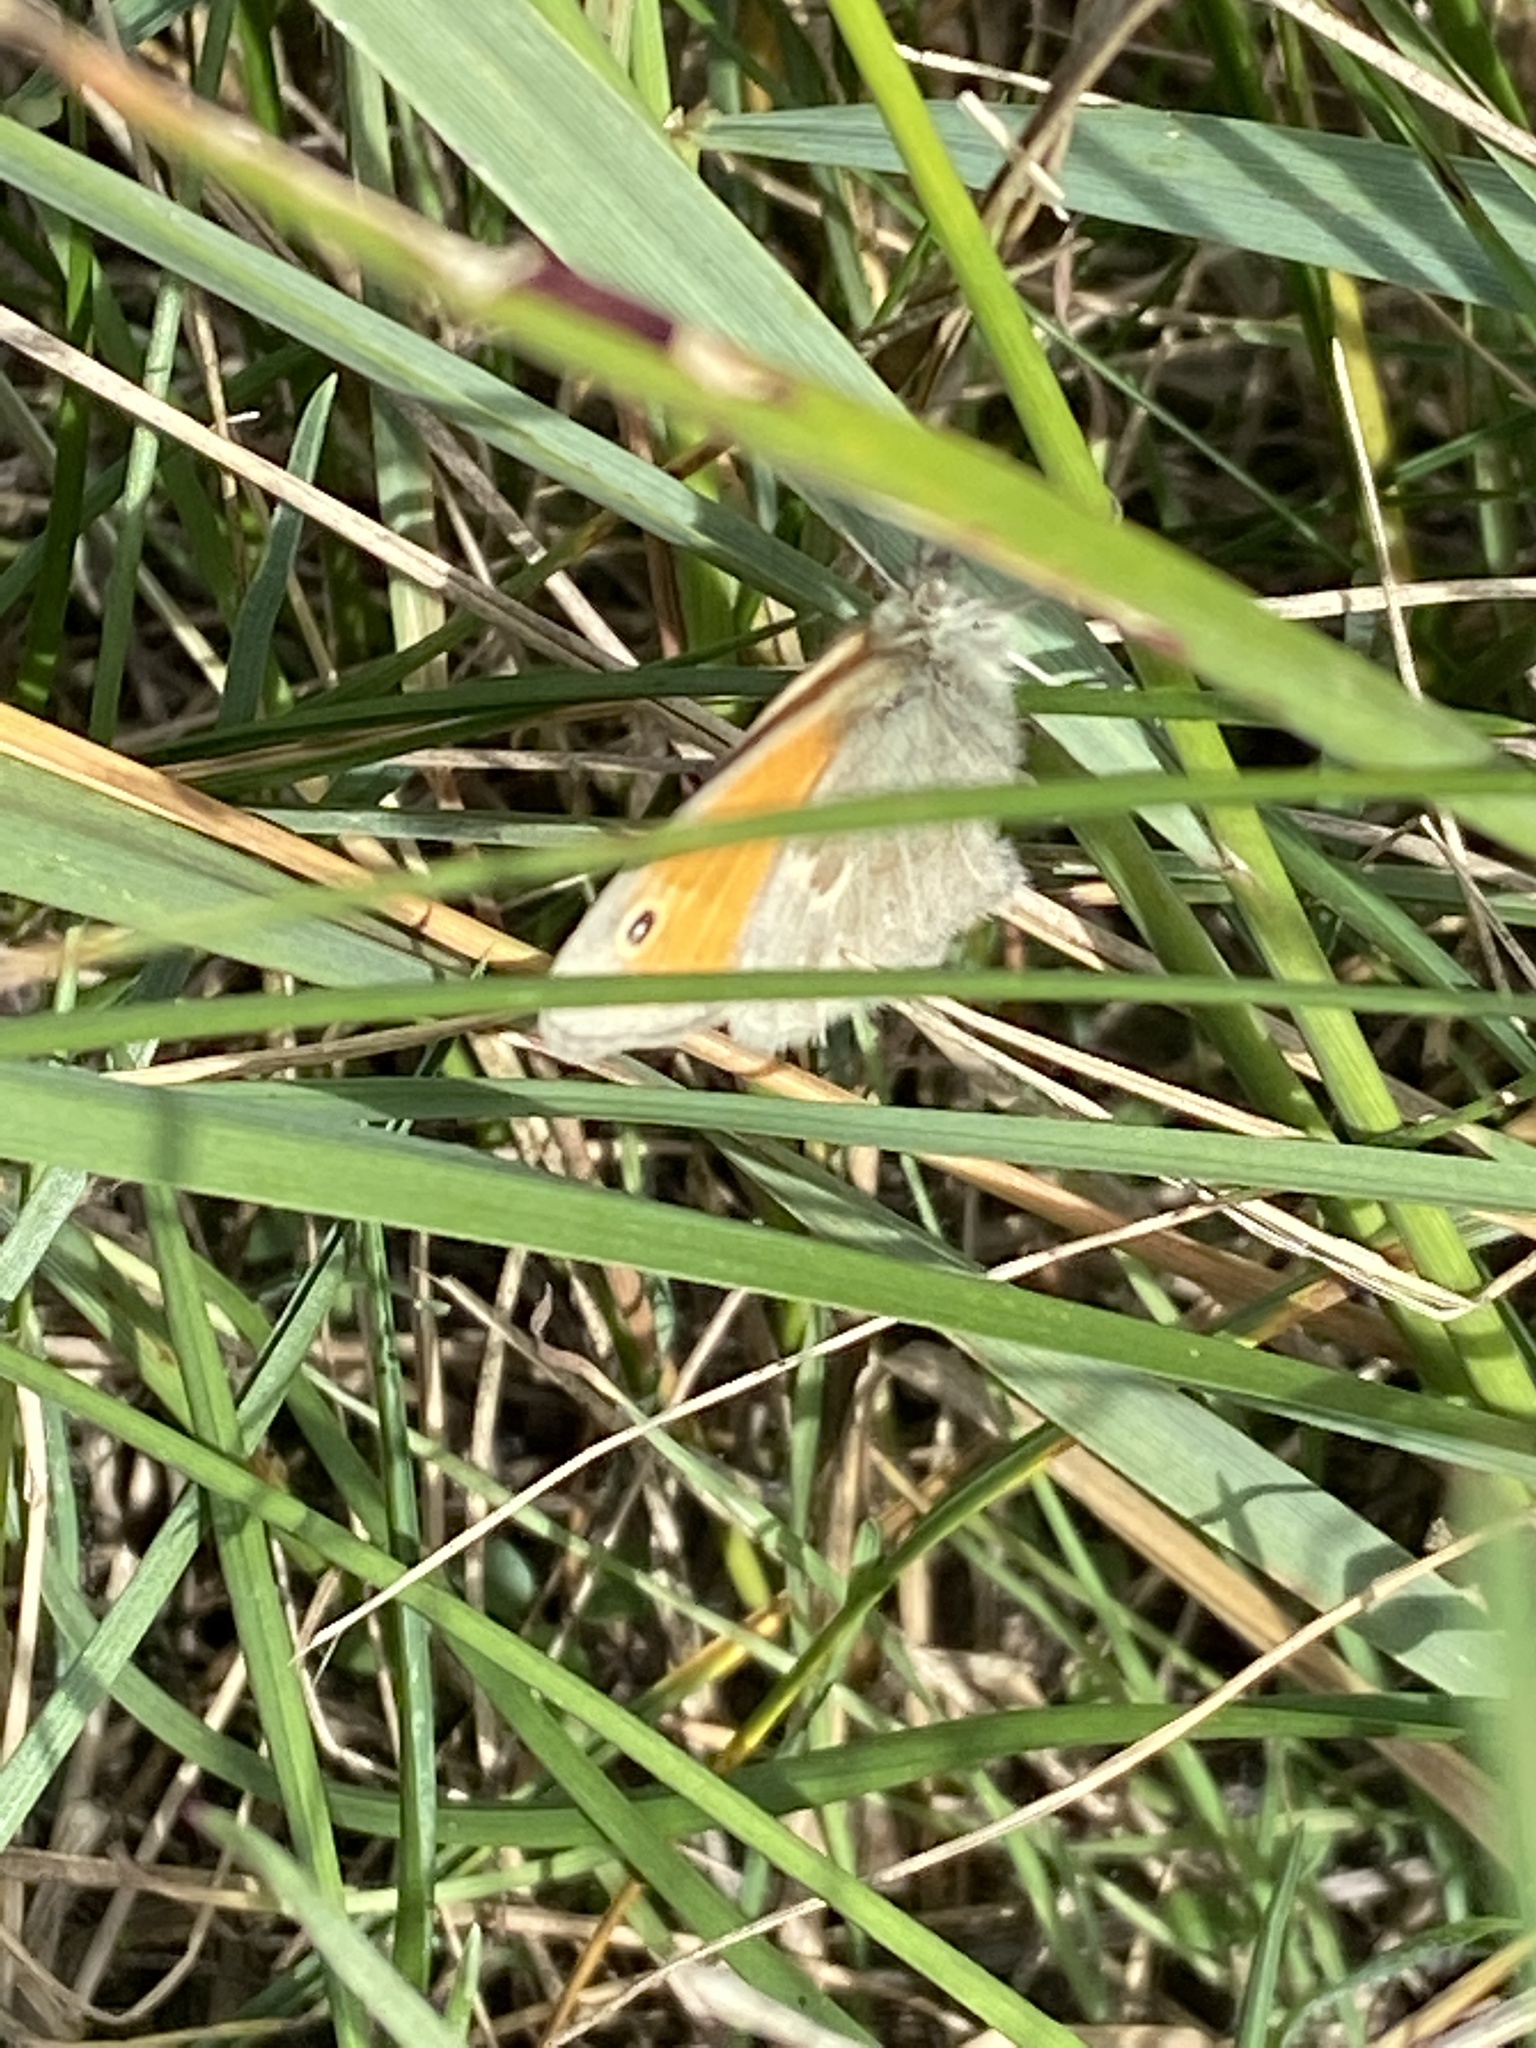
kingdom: Animalia
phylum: Arthropoda
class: Insecta
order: Lepidoptera
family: Nymphalidae
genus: Coenonympha
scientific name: Coenonympha pamphilus
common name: Small heath
